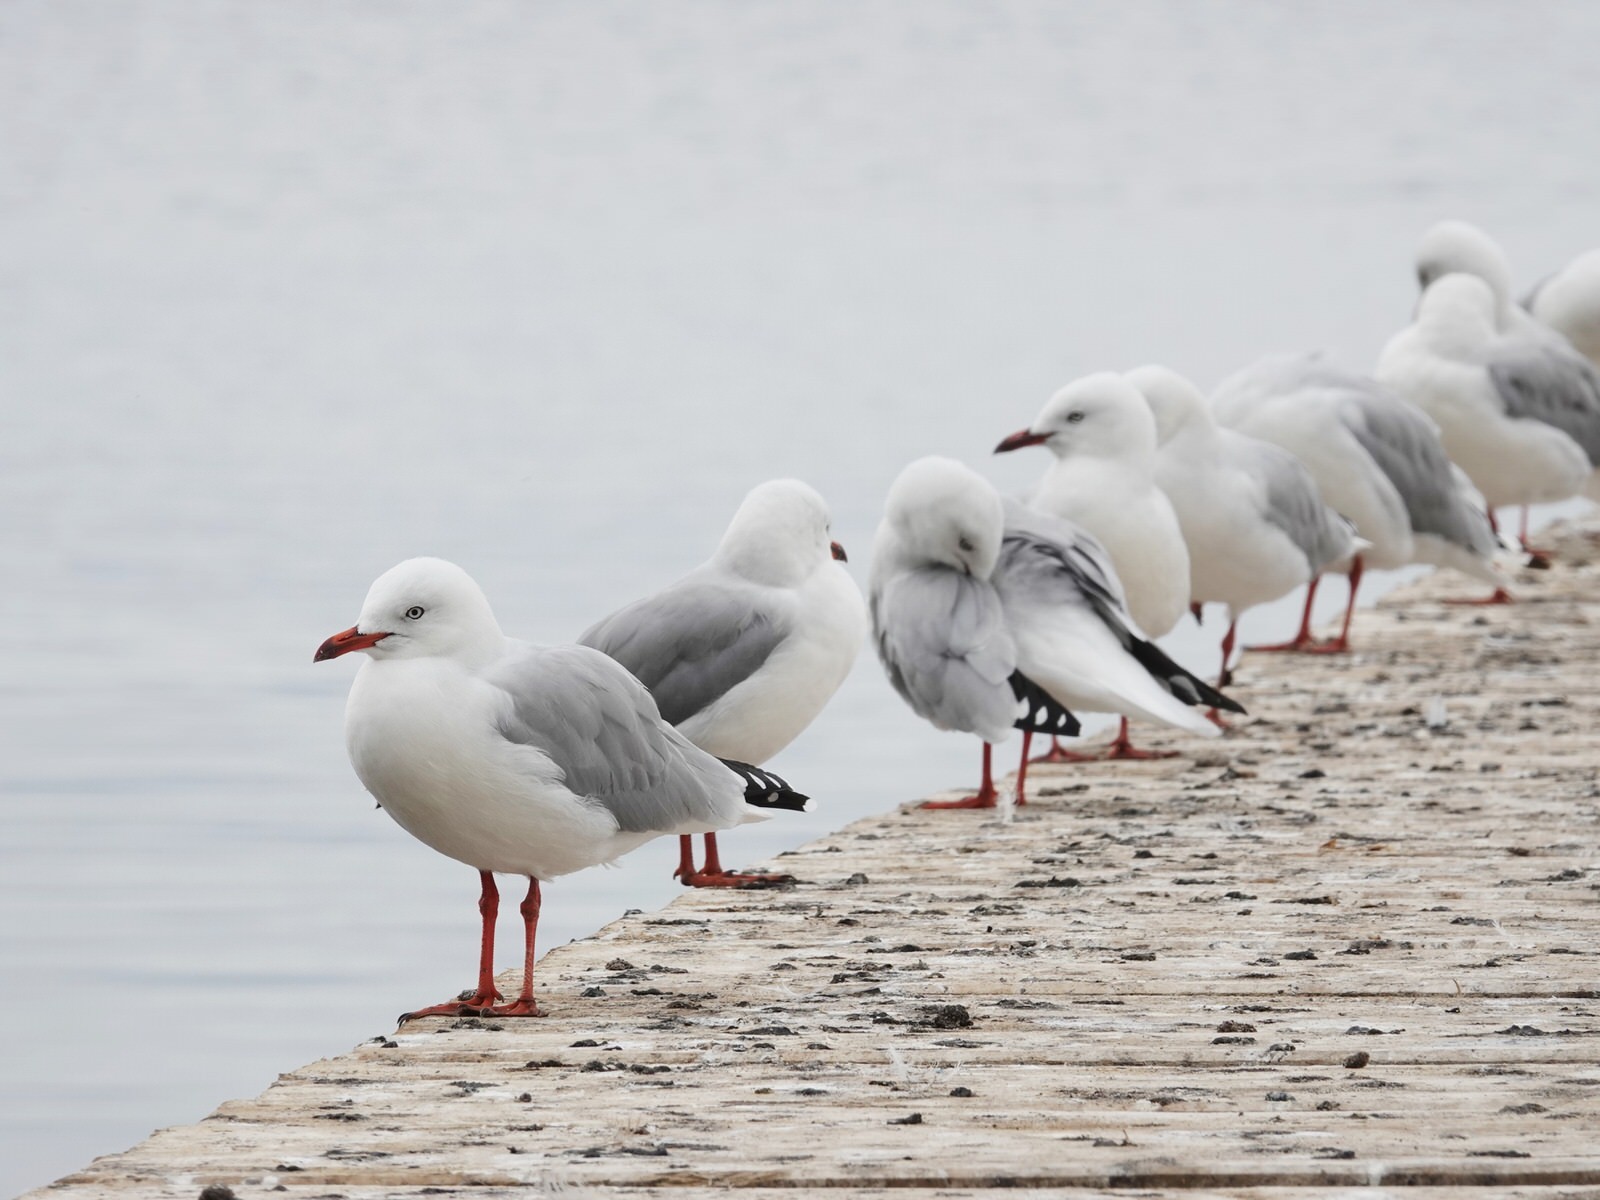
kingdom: Animalia
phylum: Chordata
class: Aves
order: Charadriiformes
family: Laridae
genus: Chroicocephalus
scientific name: Chroicocephalus novaehollandiae
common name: Silver gull
